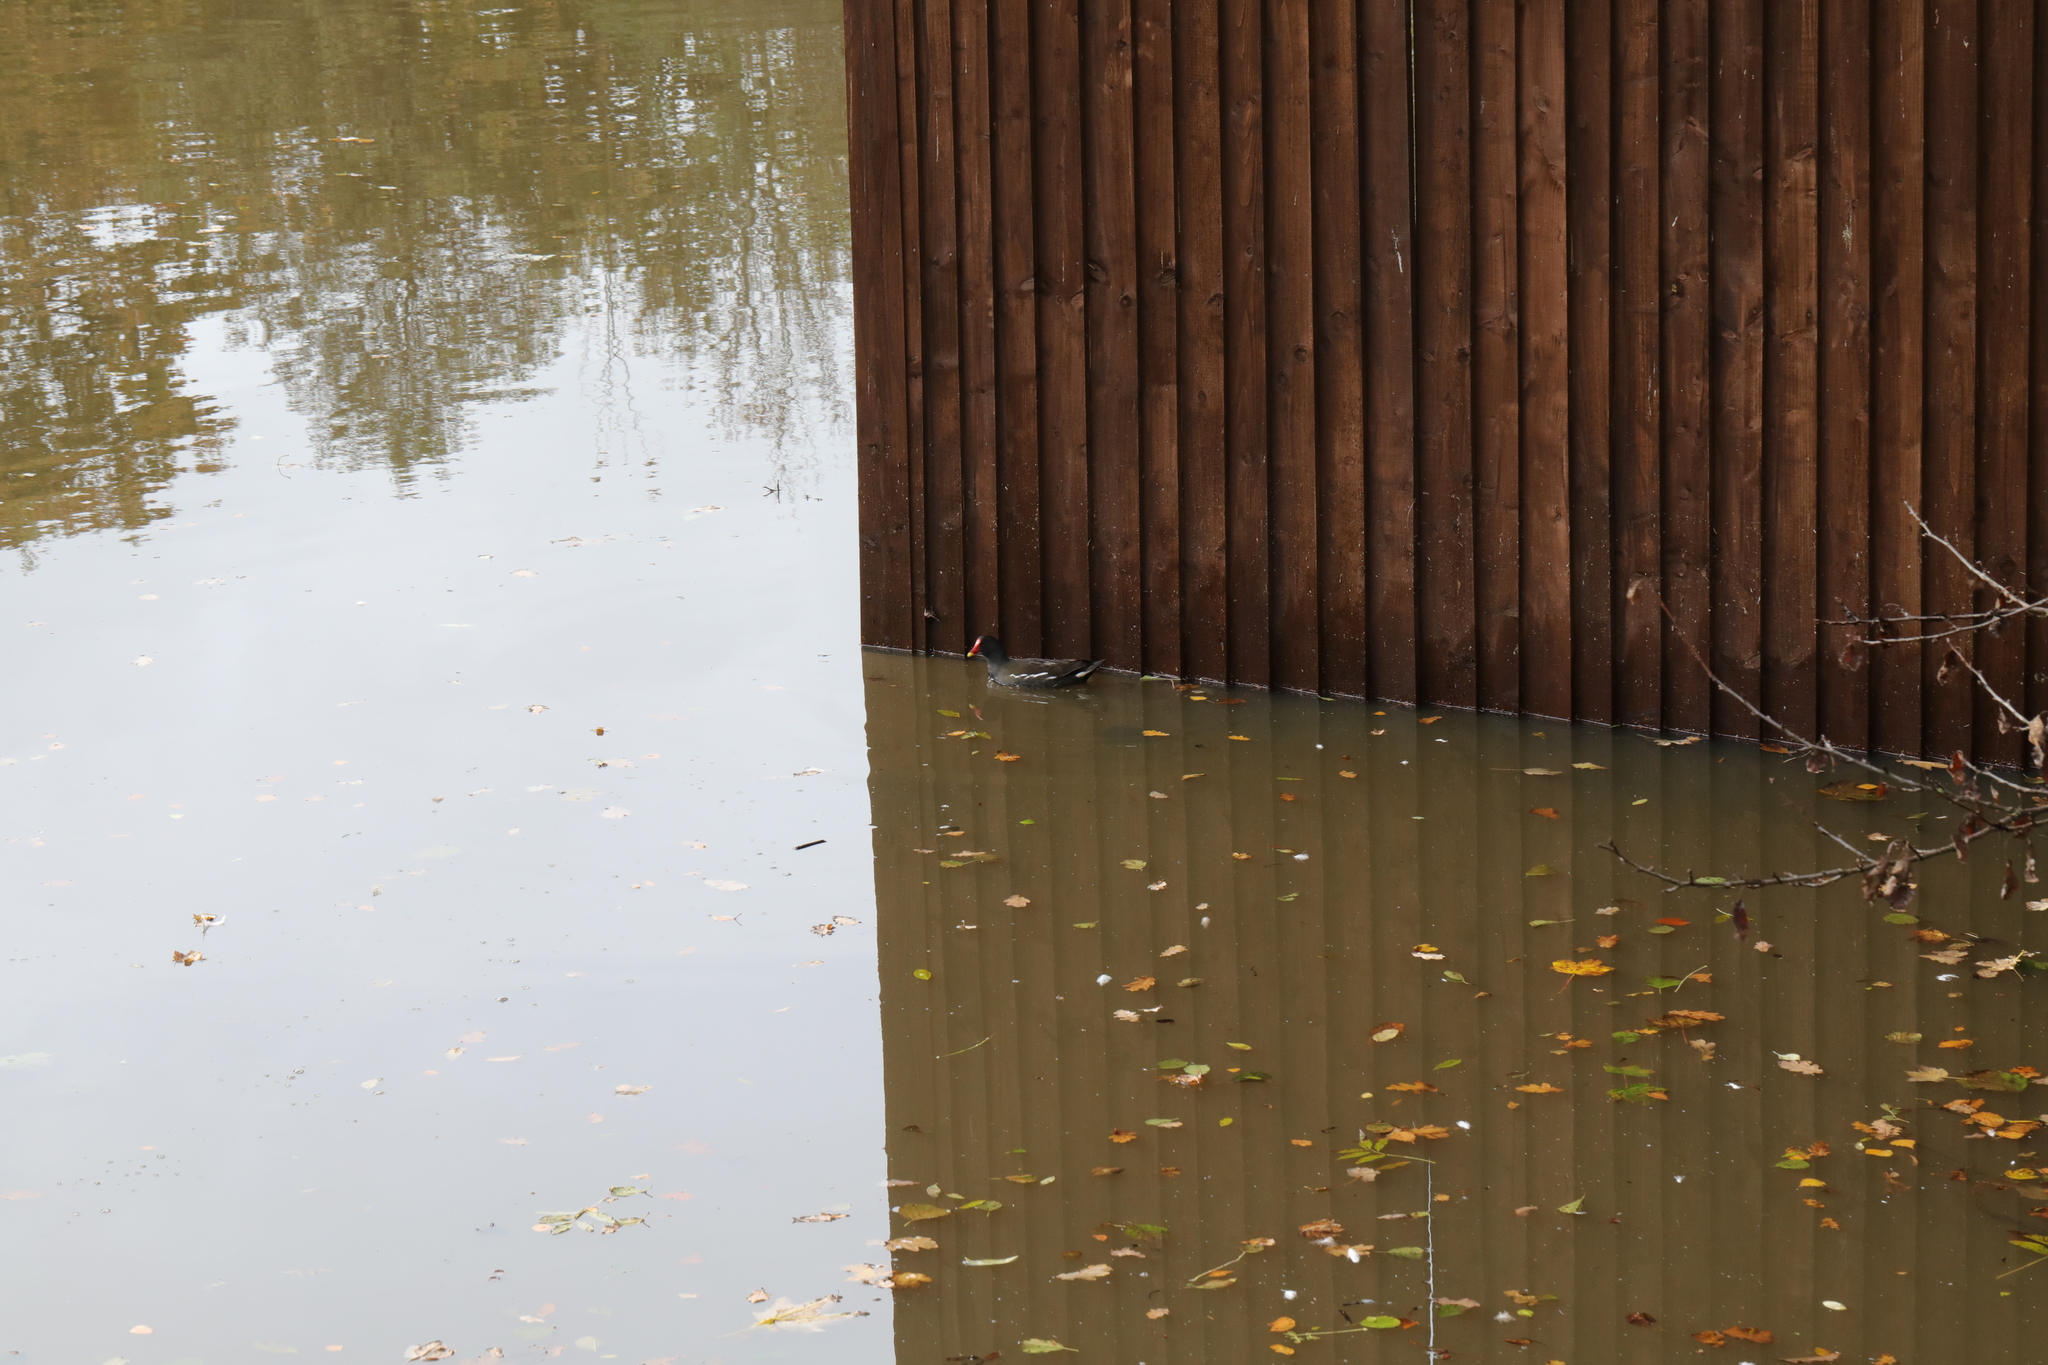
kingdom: Animalia
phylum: Chordata
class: Aves
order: Gruiformes
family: Rallidae
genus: Gallinula
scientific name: Gallinula chloropus
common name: Common moorhen
